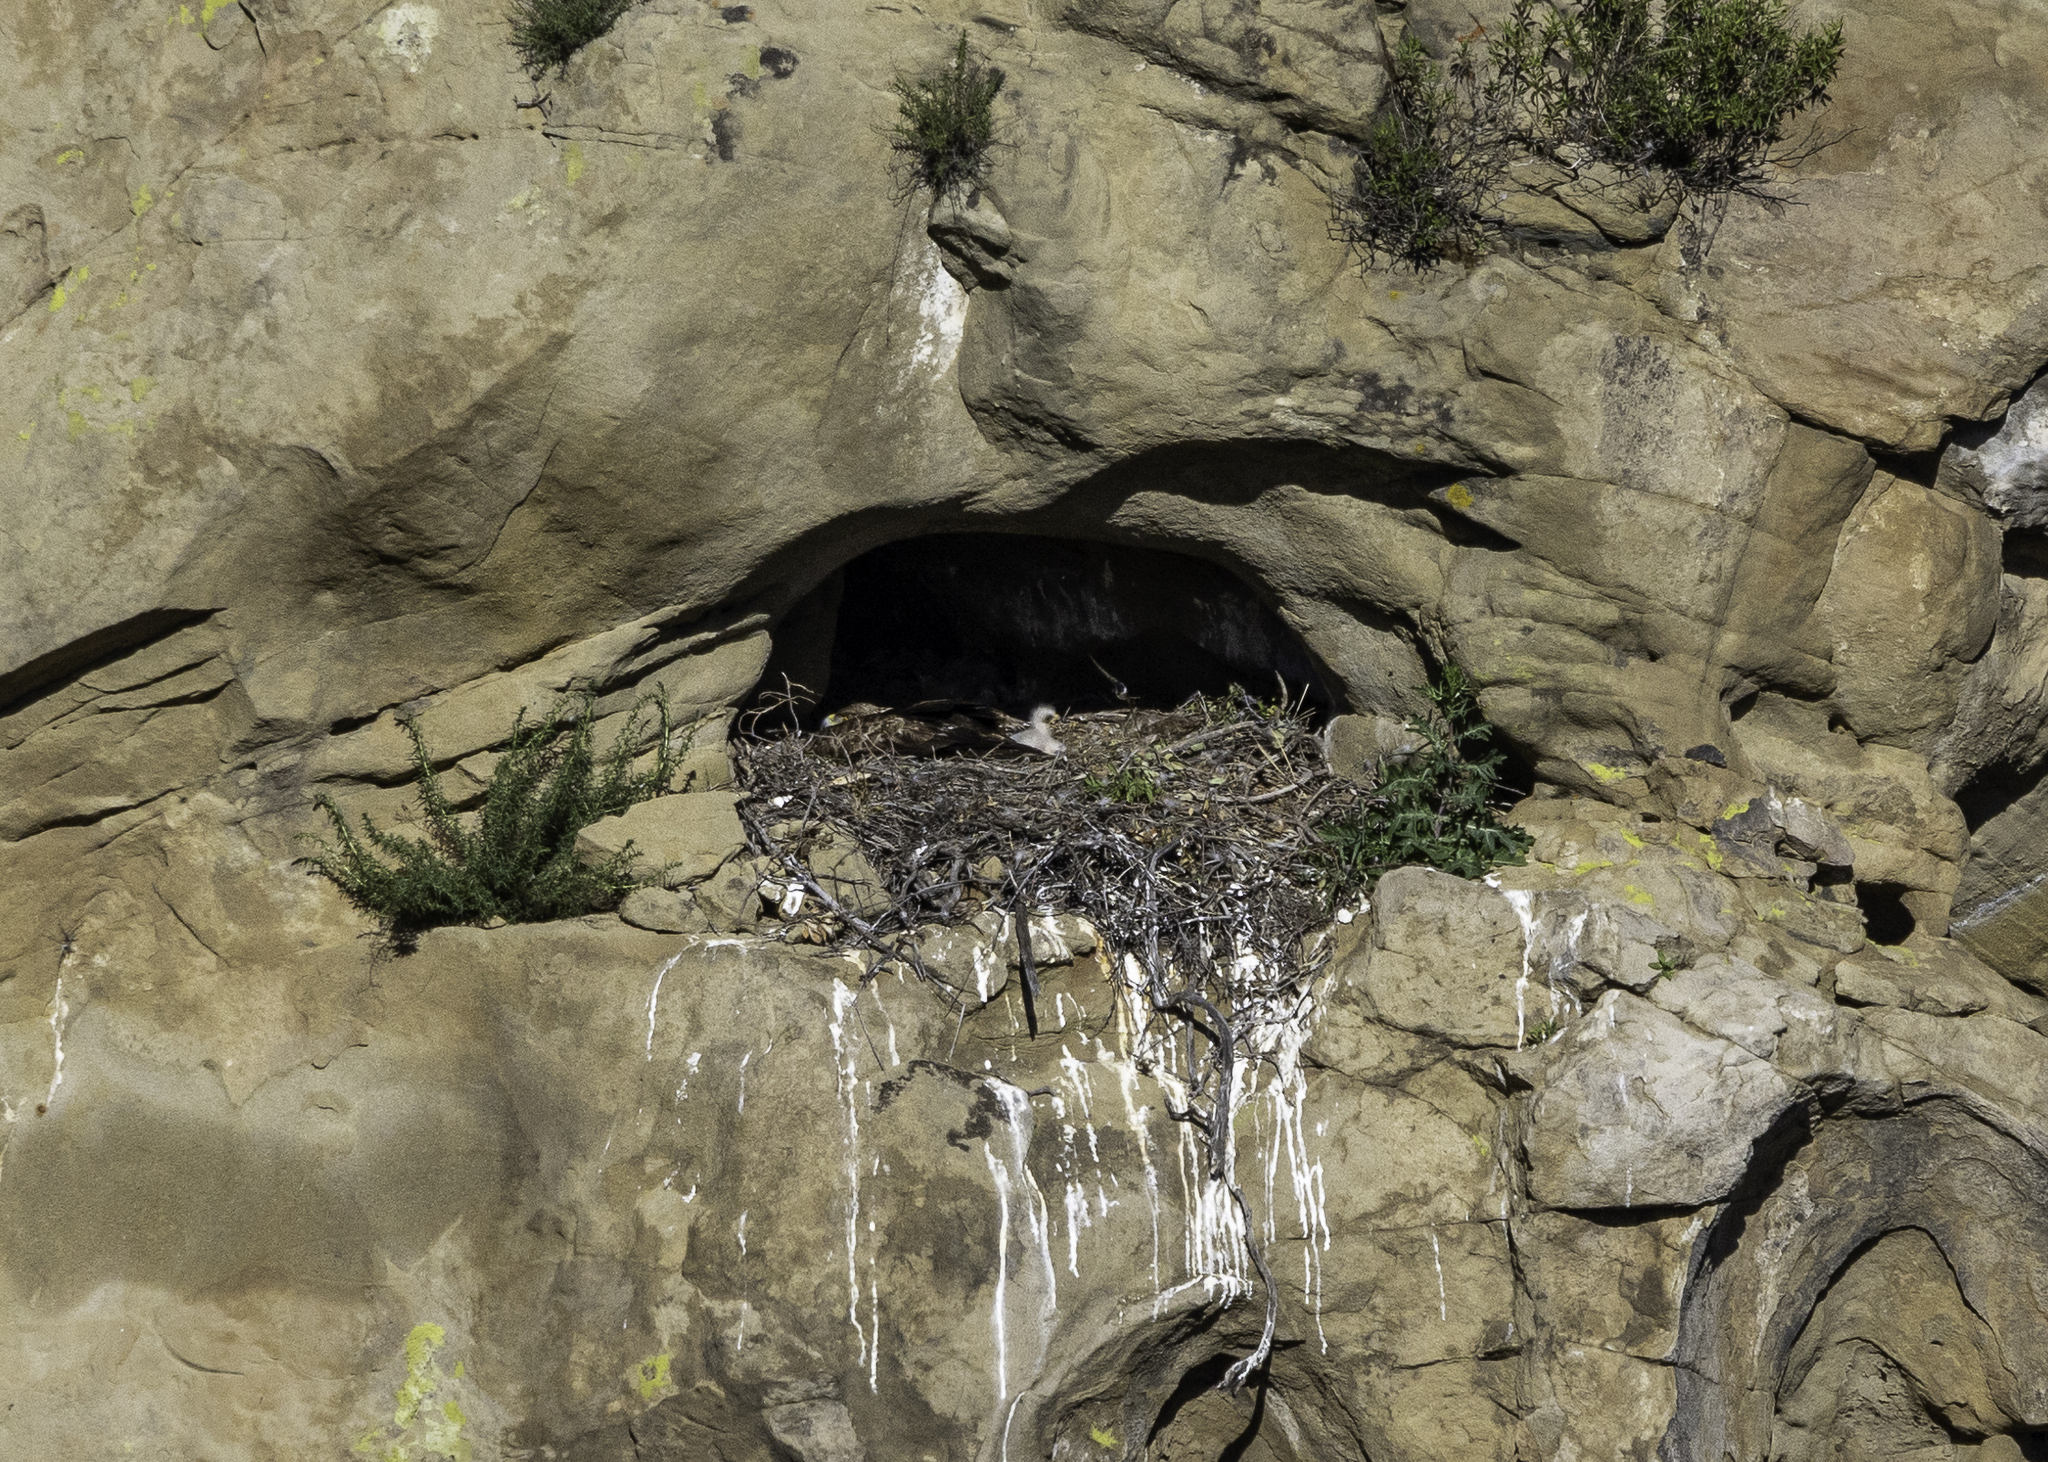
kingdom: Animalia
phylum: Chordata
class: Aves
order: Accipitriformes
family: Accipitridae
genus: Aquila
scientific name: Aquila chrysaetos
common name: Golden eagle
